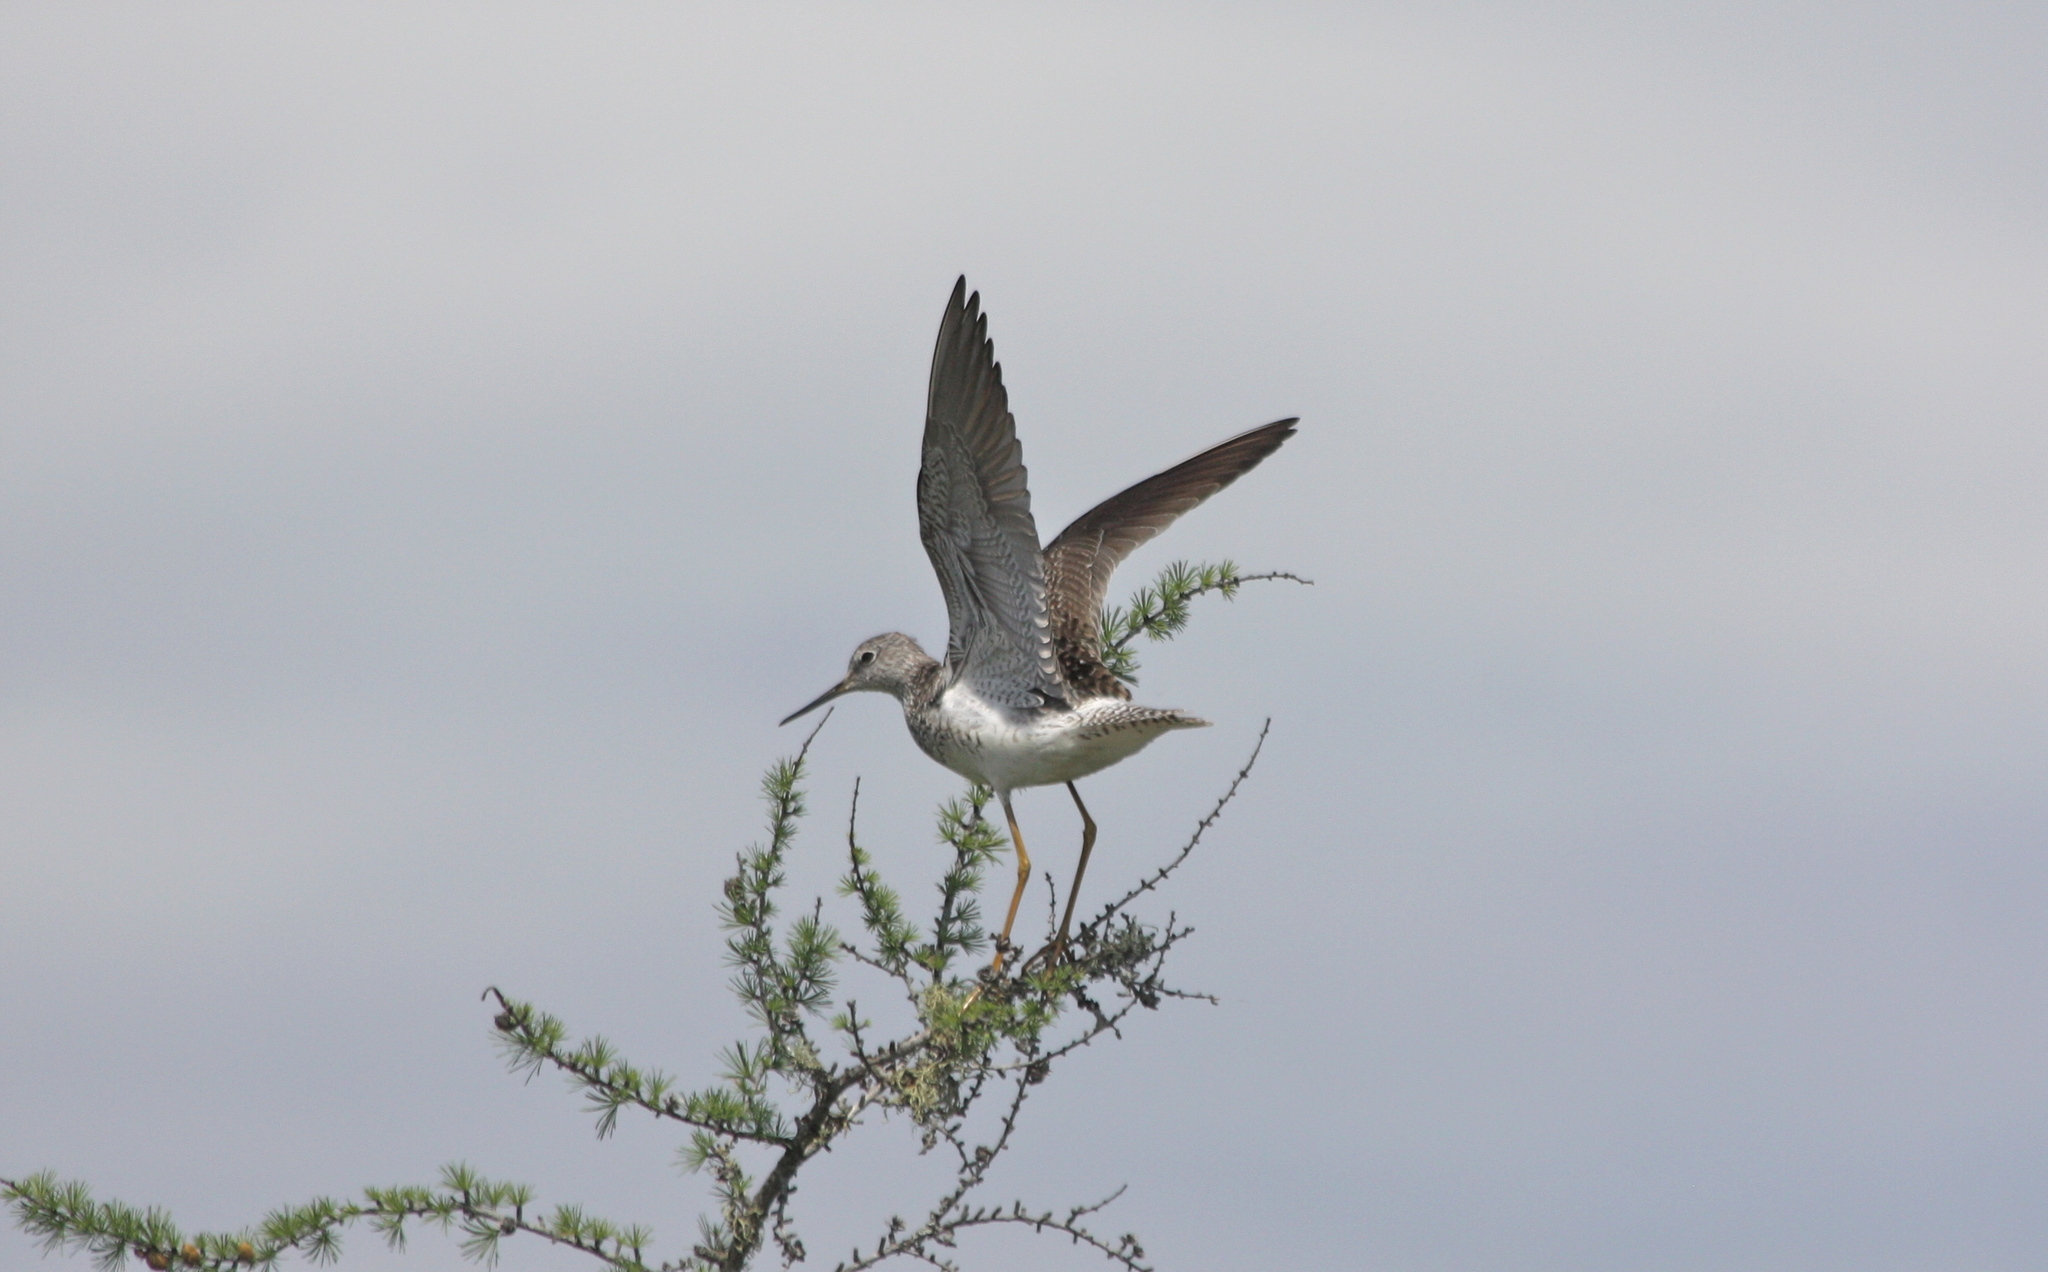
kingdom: Animalia
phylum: Chordata
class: Aves
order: Charadriiformes
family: Scolopacidae
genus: Tringa
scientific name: Tringa flavipes
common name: Lesser yellowlegs
